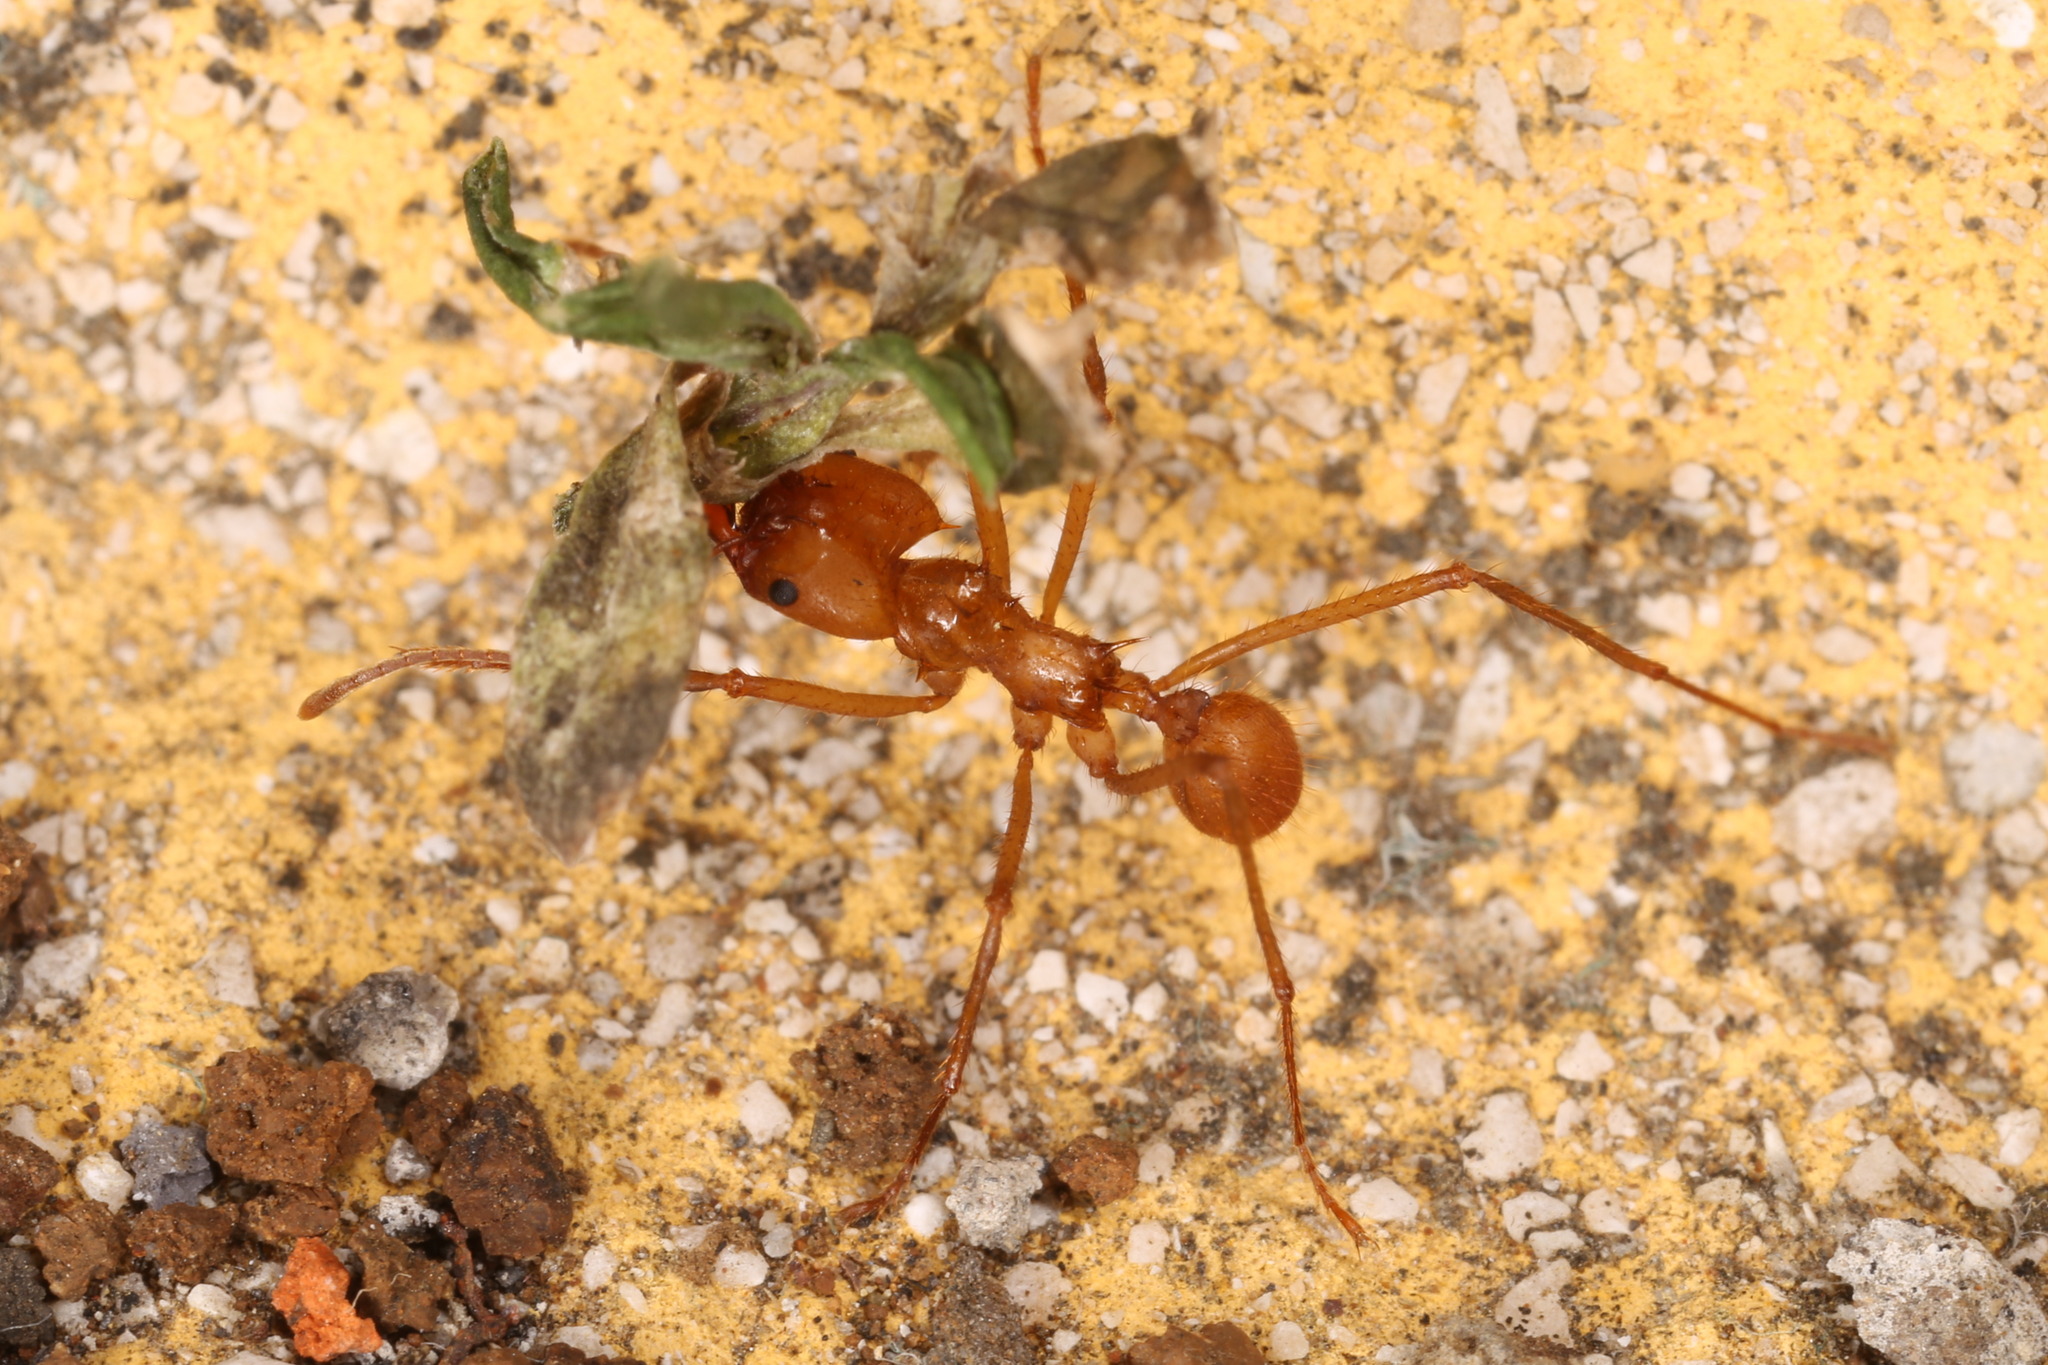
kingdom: Animalia
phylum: Arthropoda
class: Insecta
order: Hymenoptera
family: Formicidae
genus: Atta
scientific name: Atta cephalotes
